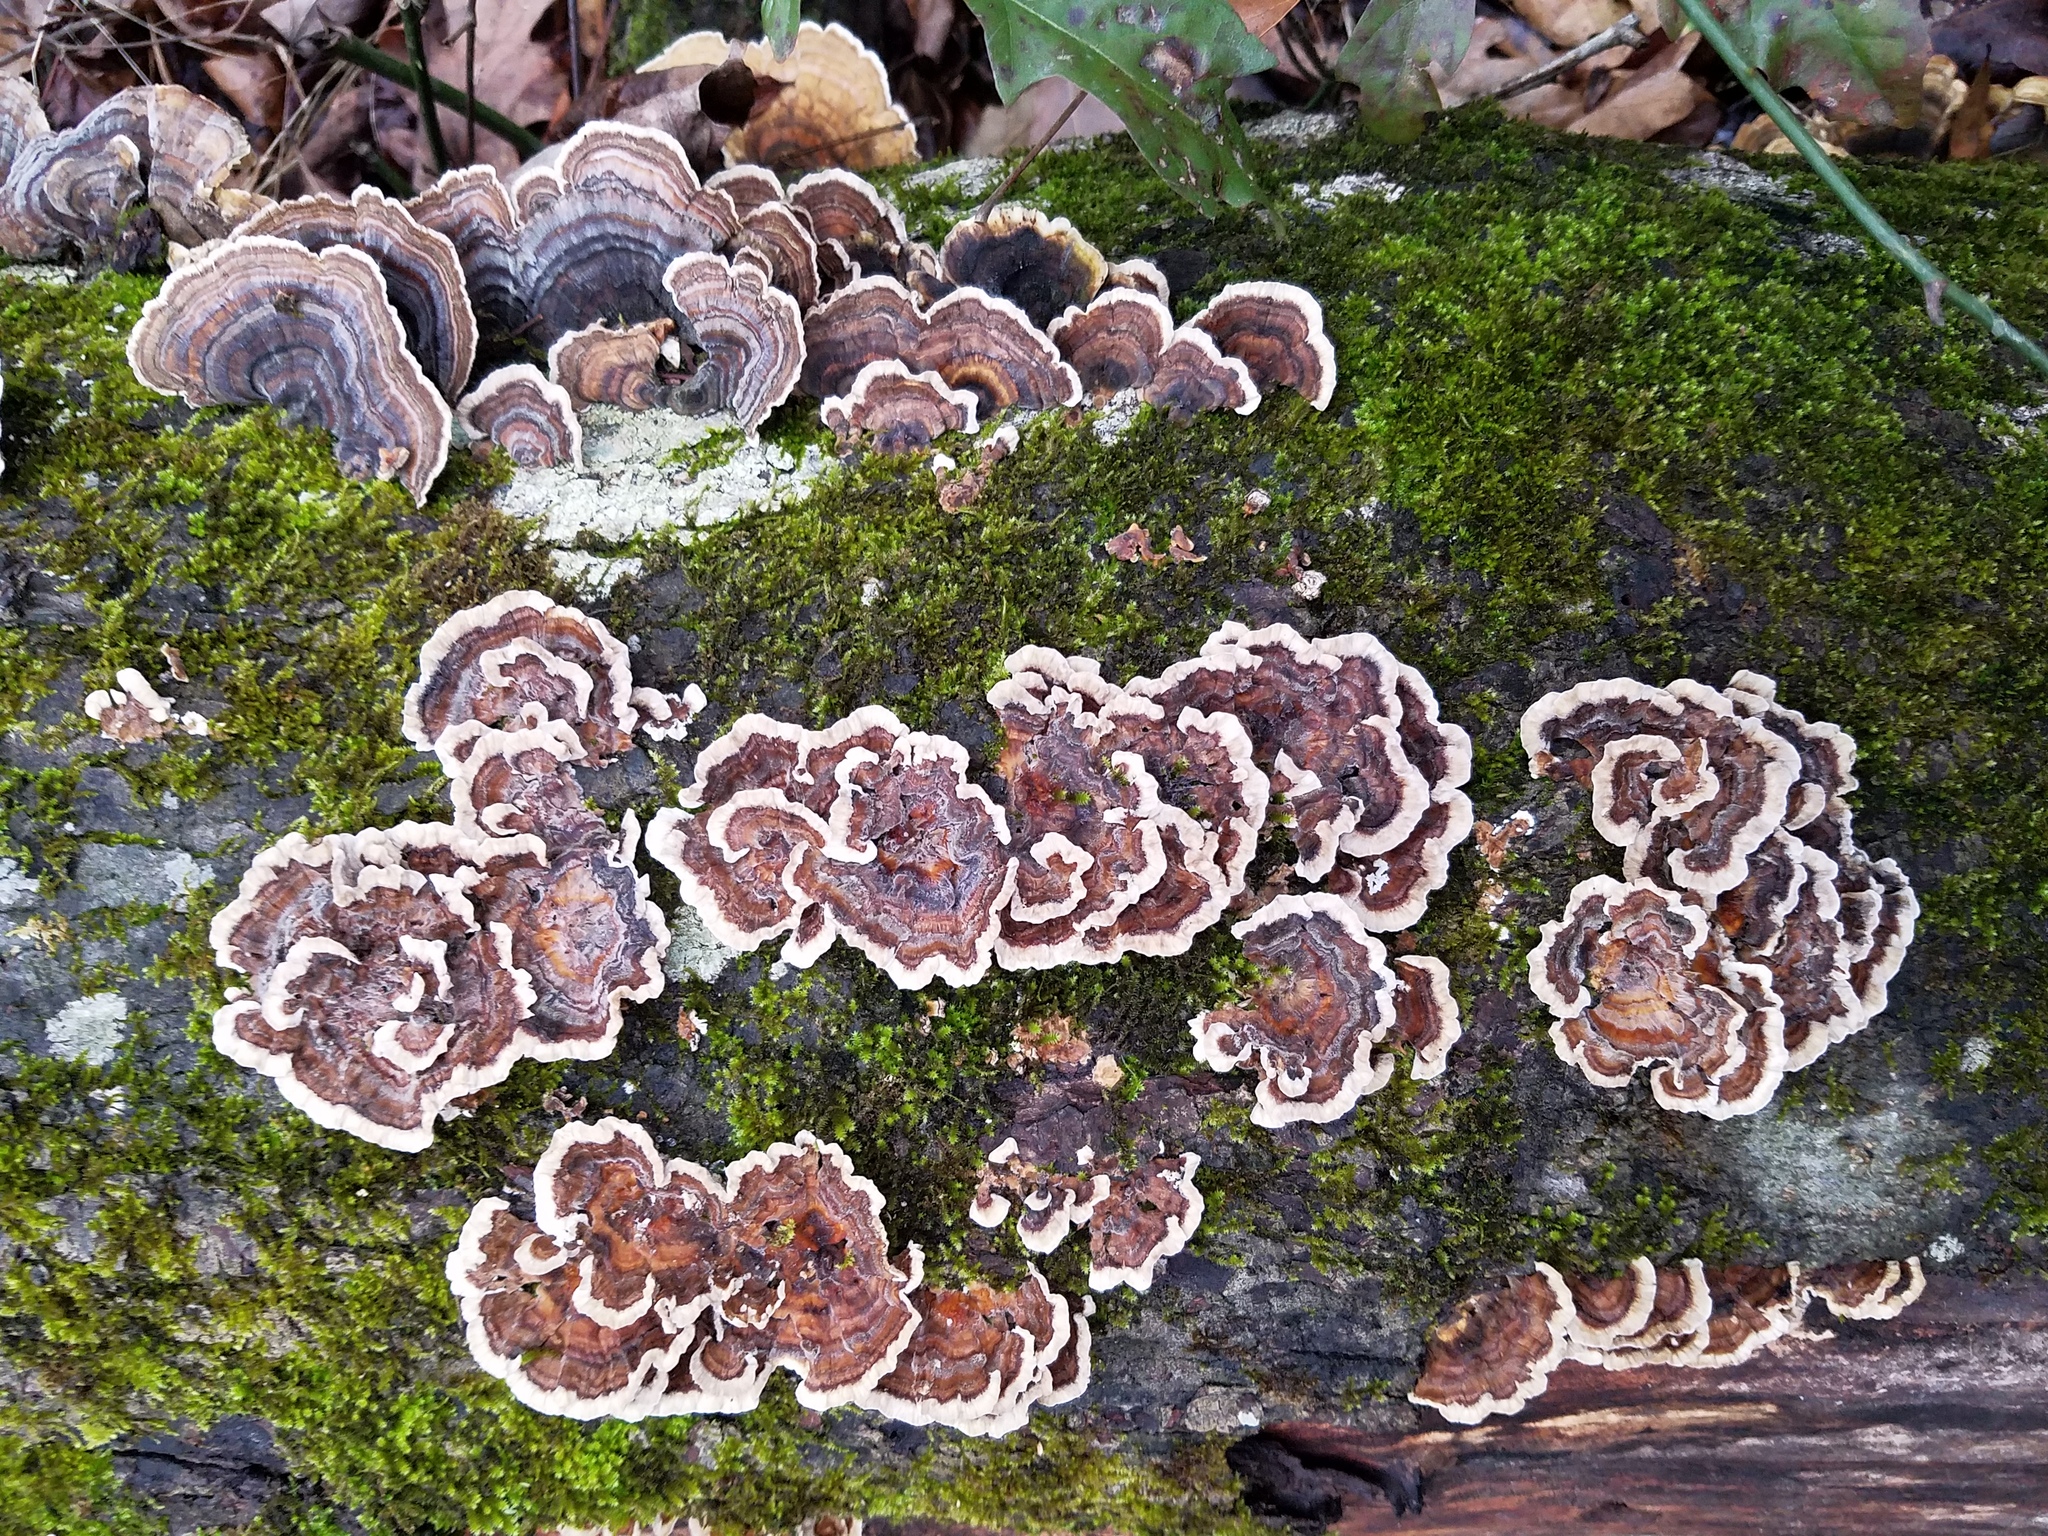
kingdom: Fungi
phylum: Basidiomycota
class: Agaricomycetes
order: Polyporales
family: Polyporaceae
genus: Trametes
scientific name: Trametes versicolor
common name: Turkeytail
